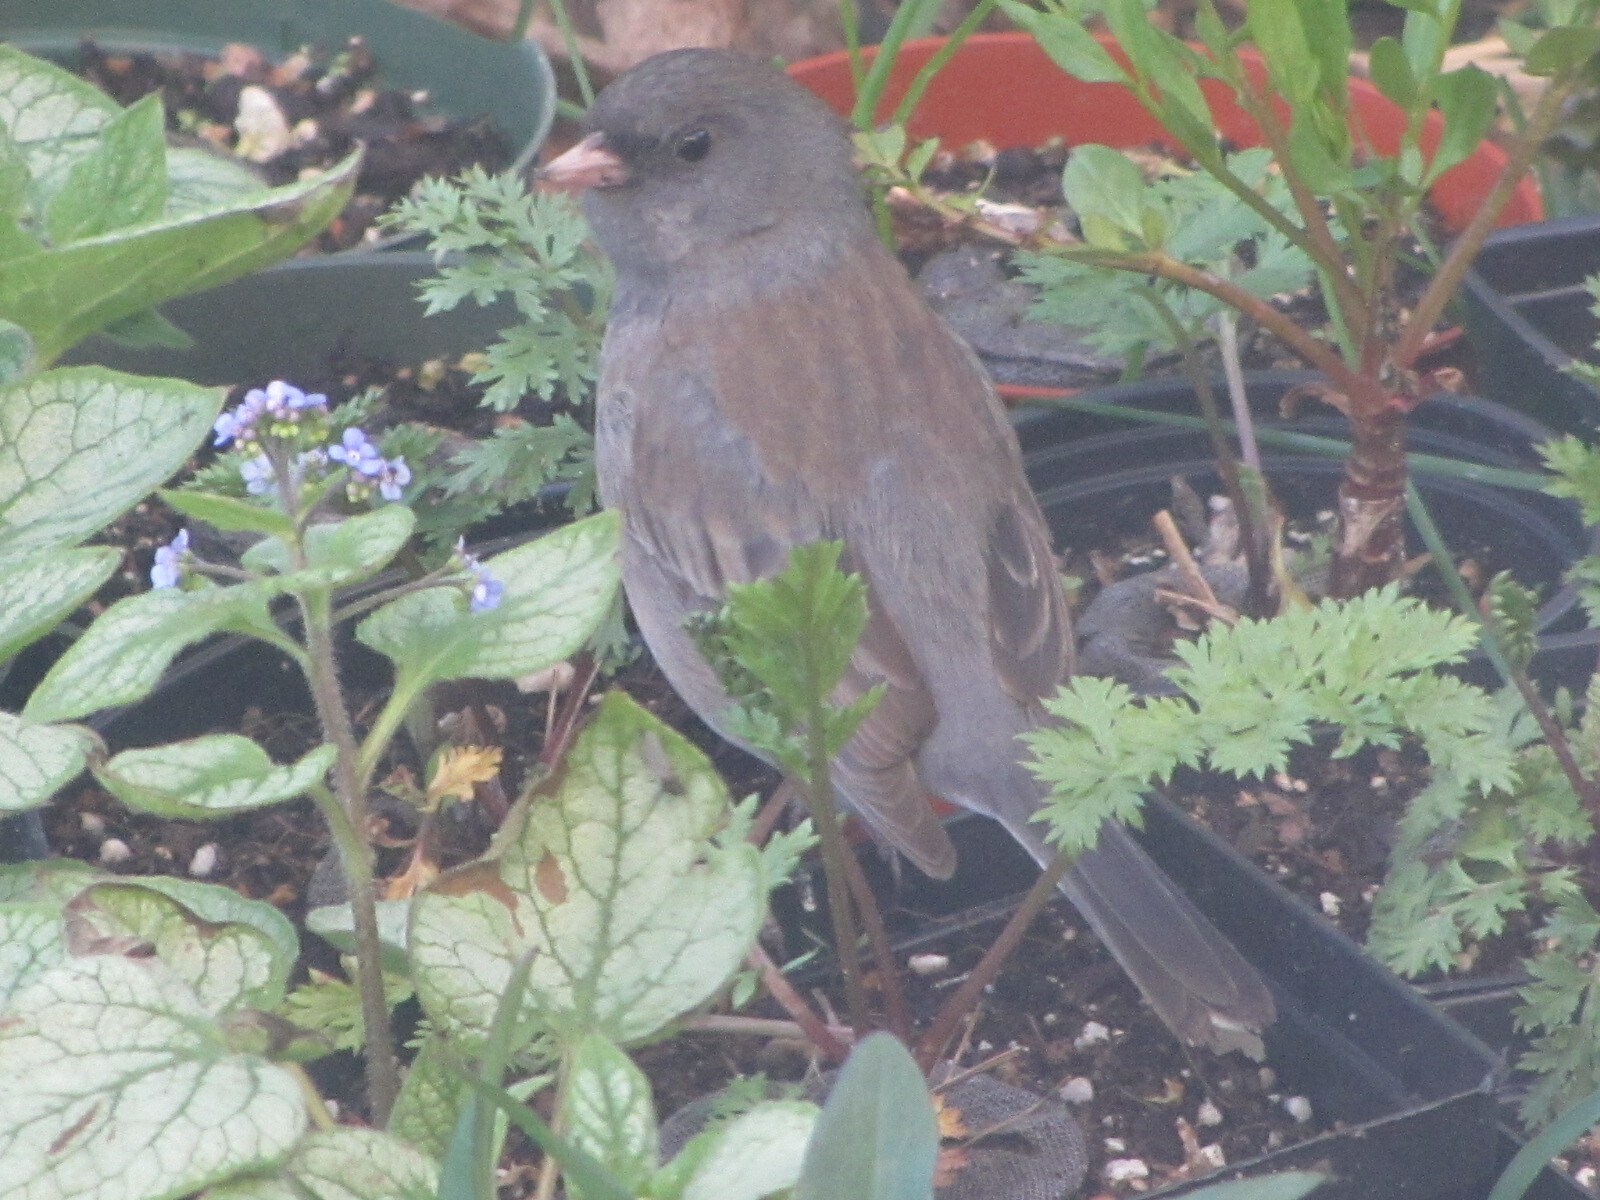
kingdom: Animalia
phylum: Chordata
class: Aves
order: Passeriformes
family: Passerellidae
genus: Junco
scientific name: Junco hyemalis
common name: Dark-eyed junco
